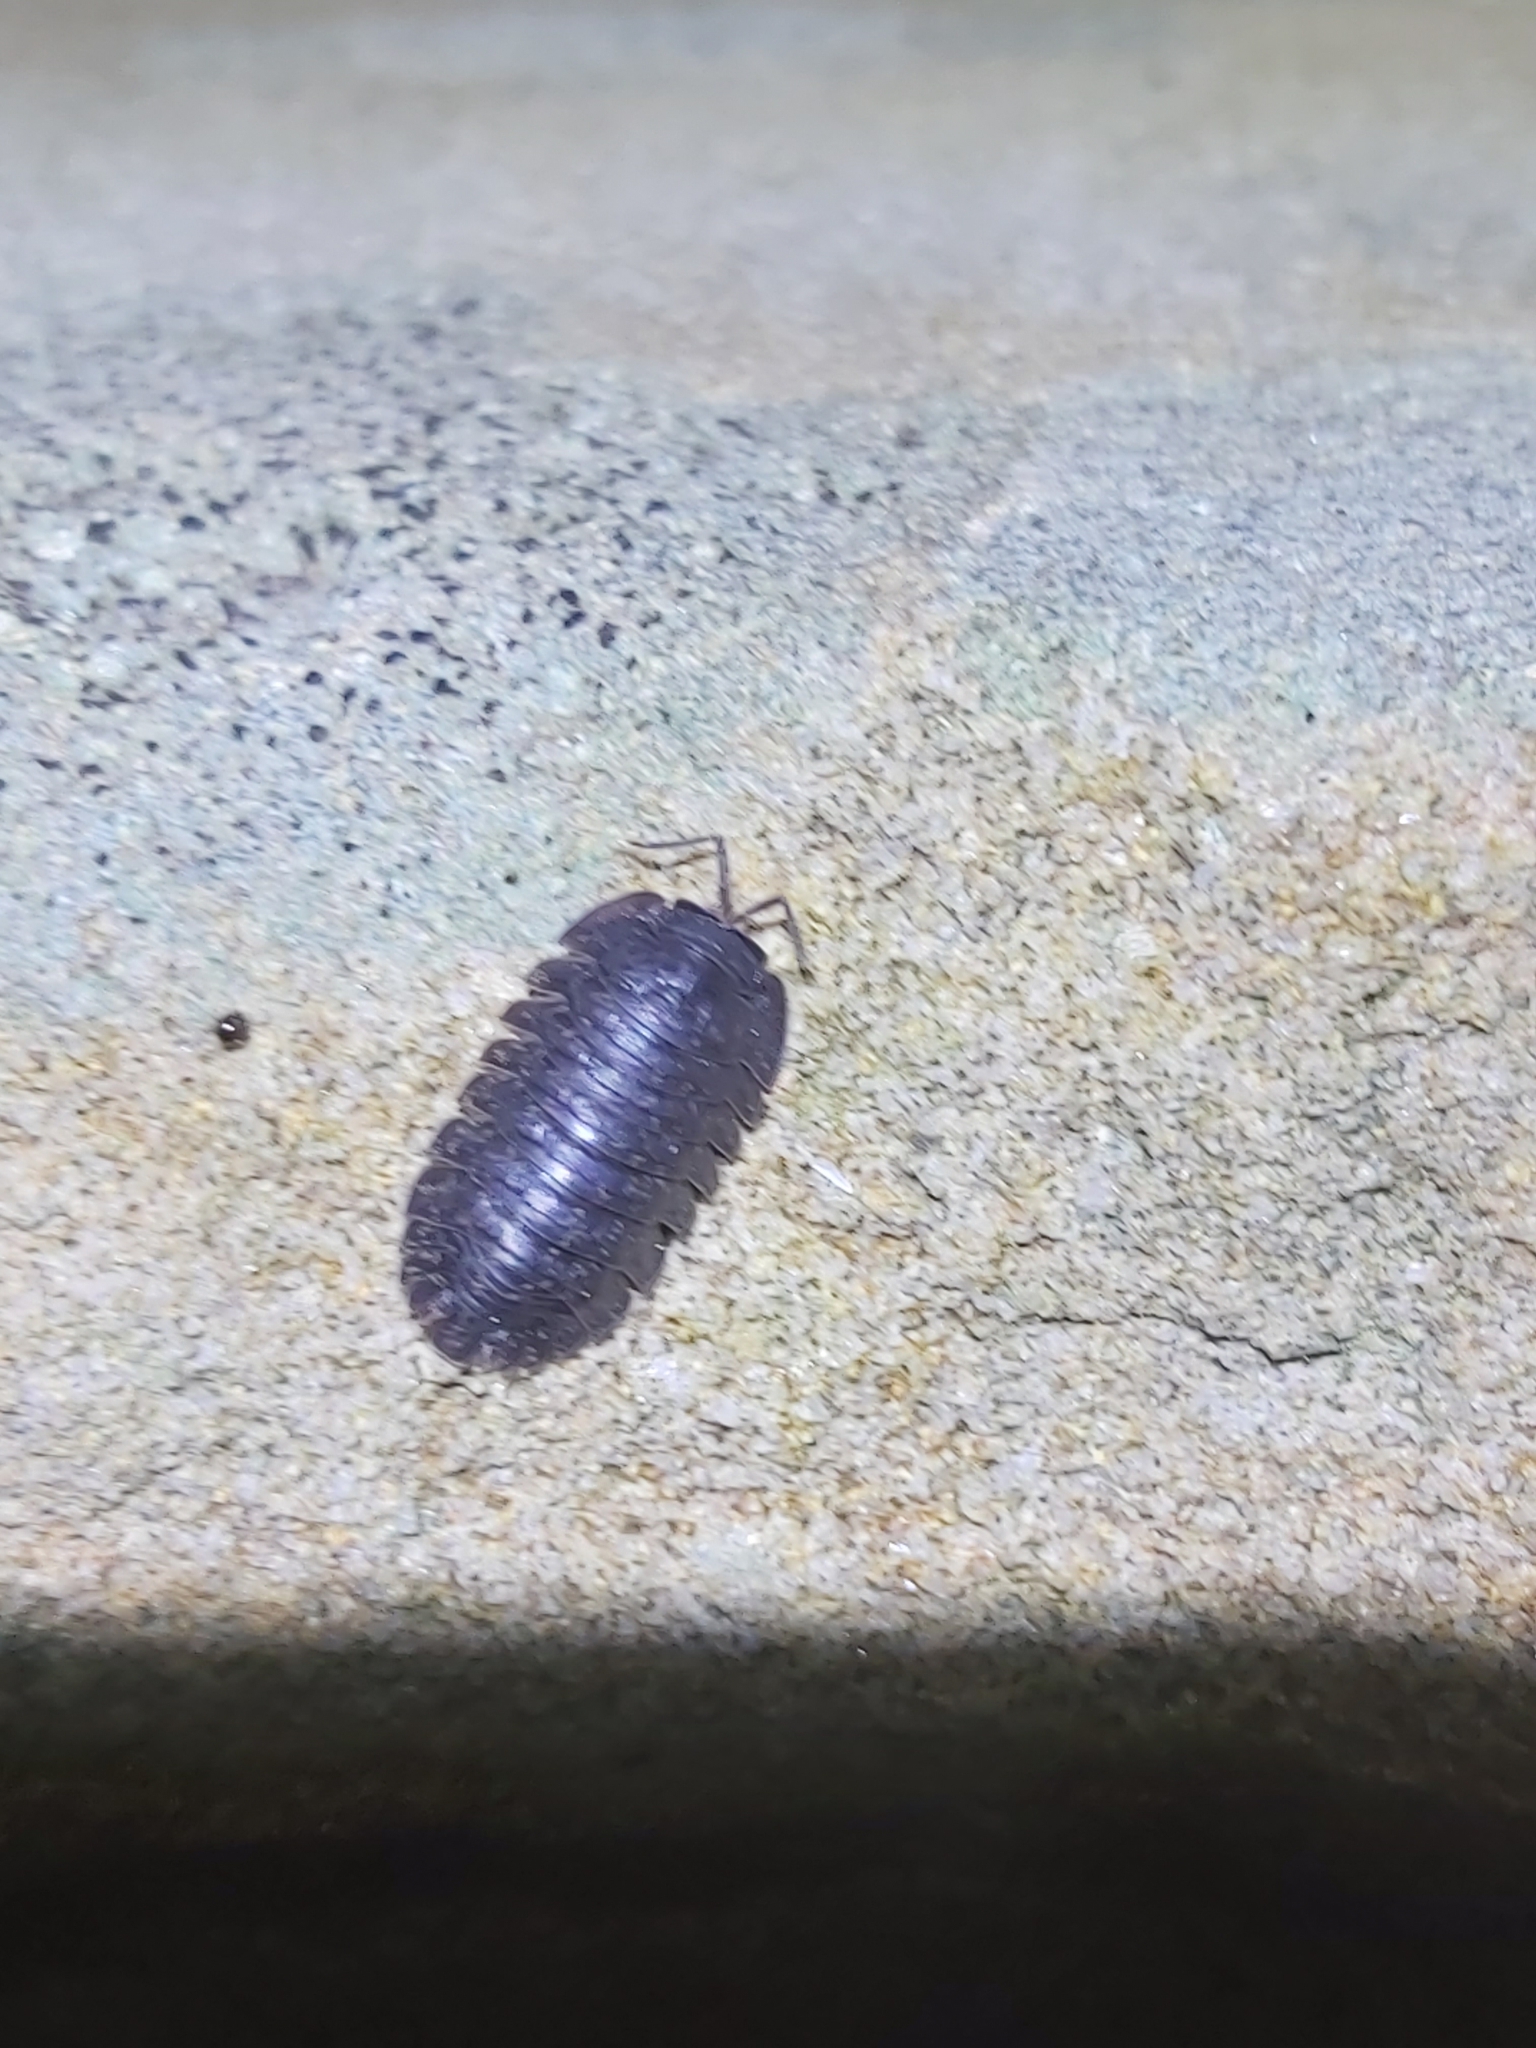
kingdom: Animalia
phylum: Arthropoda
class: Malacostraca
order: Isopoda
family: Armadillidae
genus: Merulana
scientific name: Merulana helmsiana
